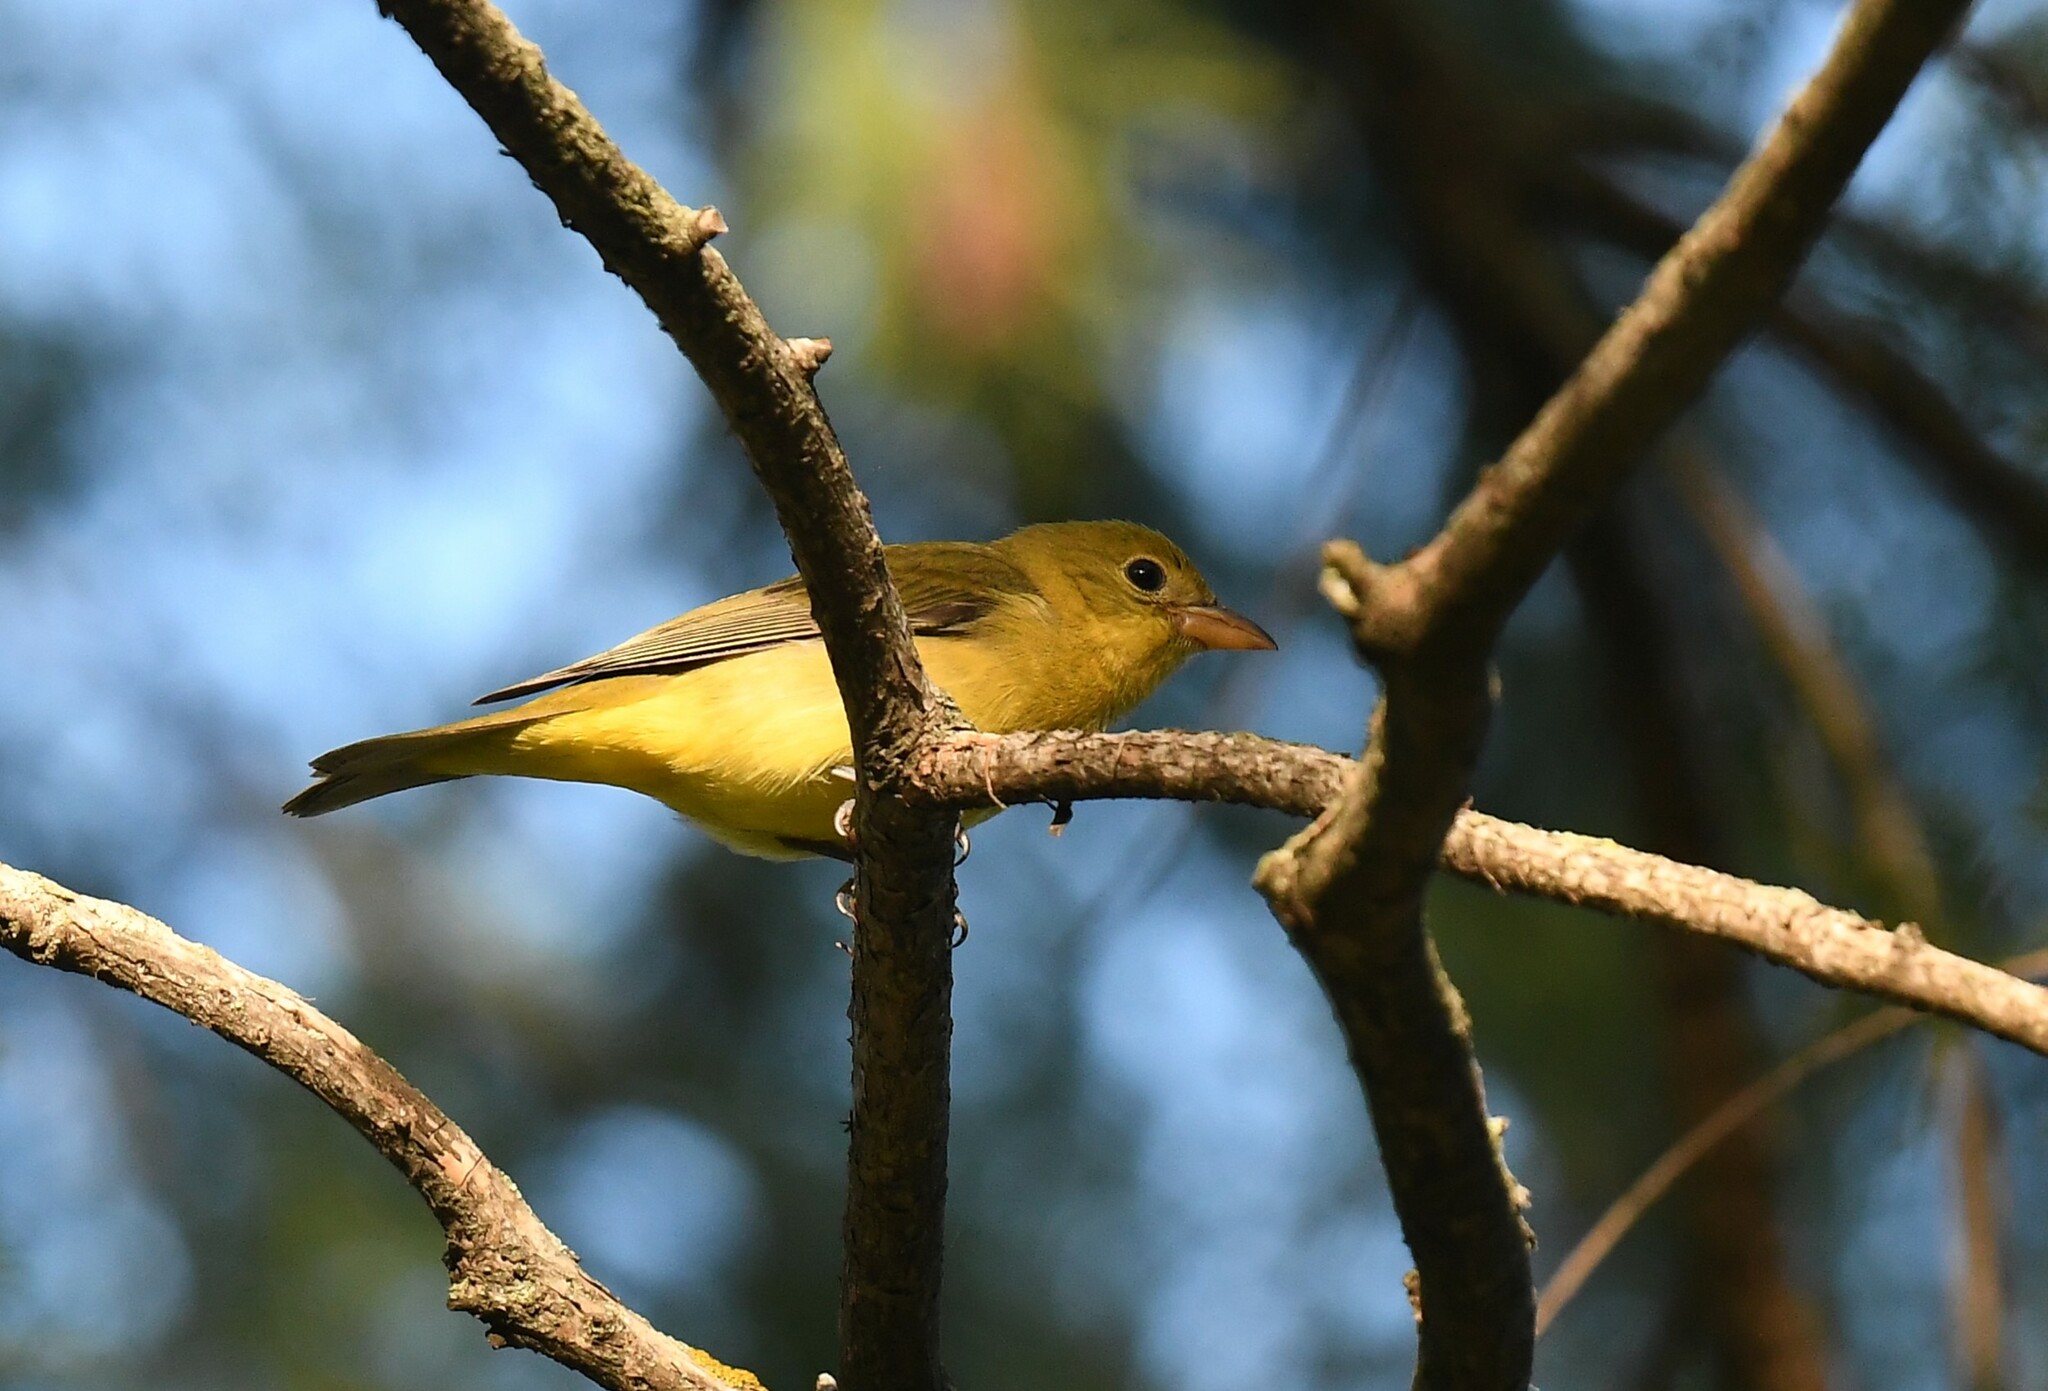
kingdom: Animalia
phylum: Chordata
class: Aves
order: Passeriformes
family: Cardinalidae
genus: Piranga
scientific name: Piranga olivacea
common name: Scarlet tanager
